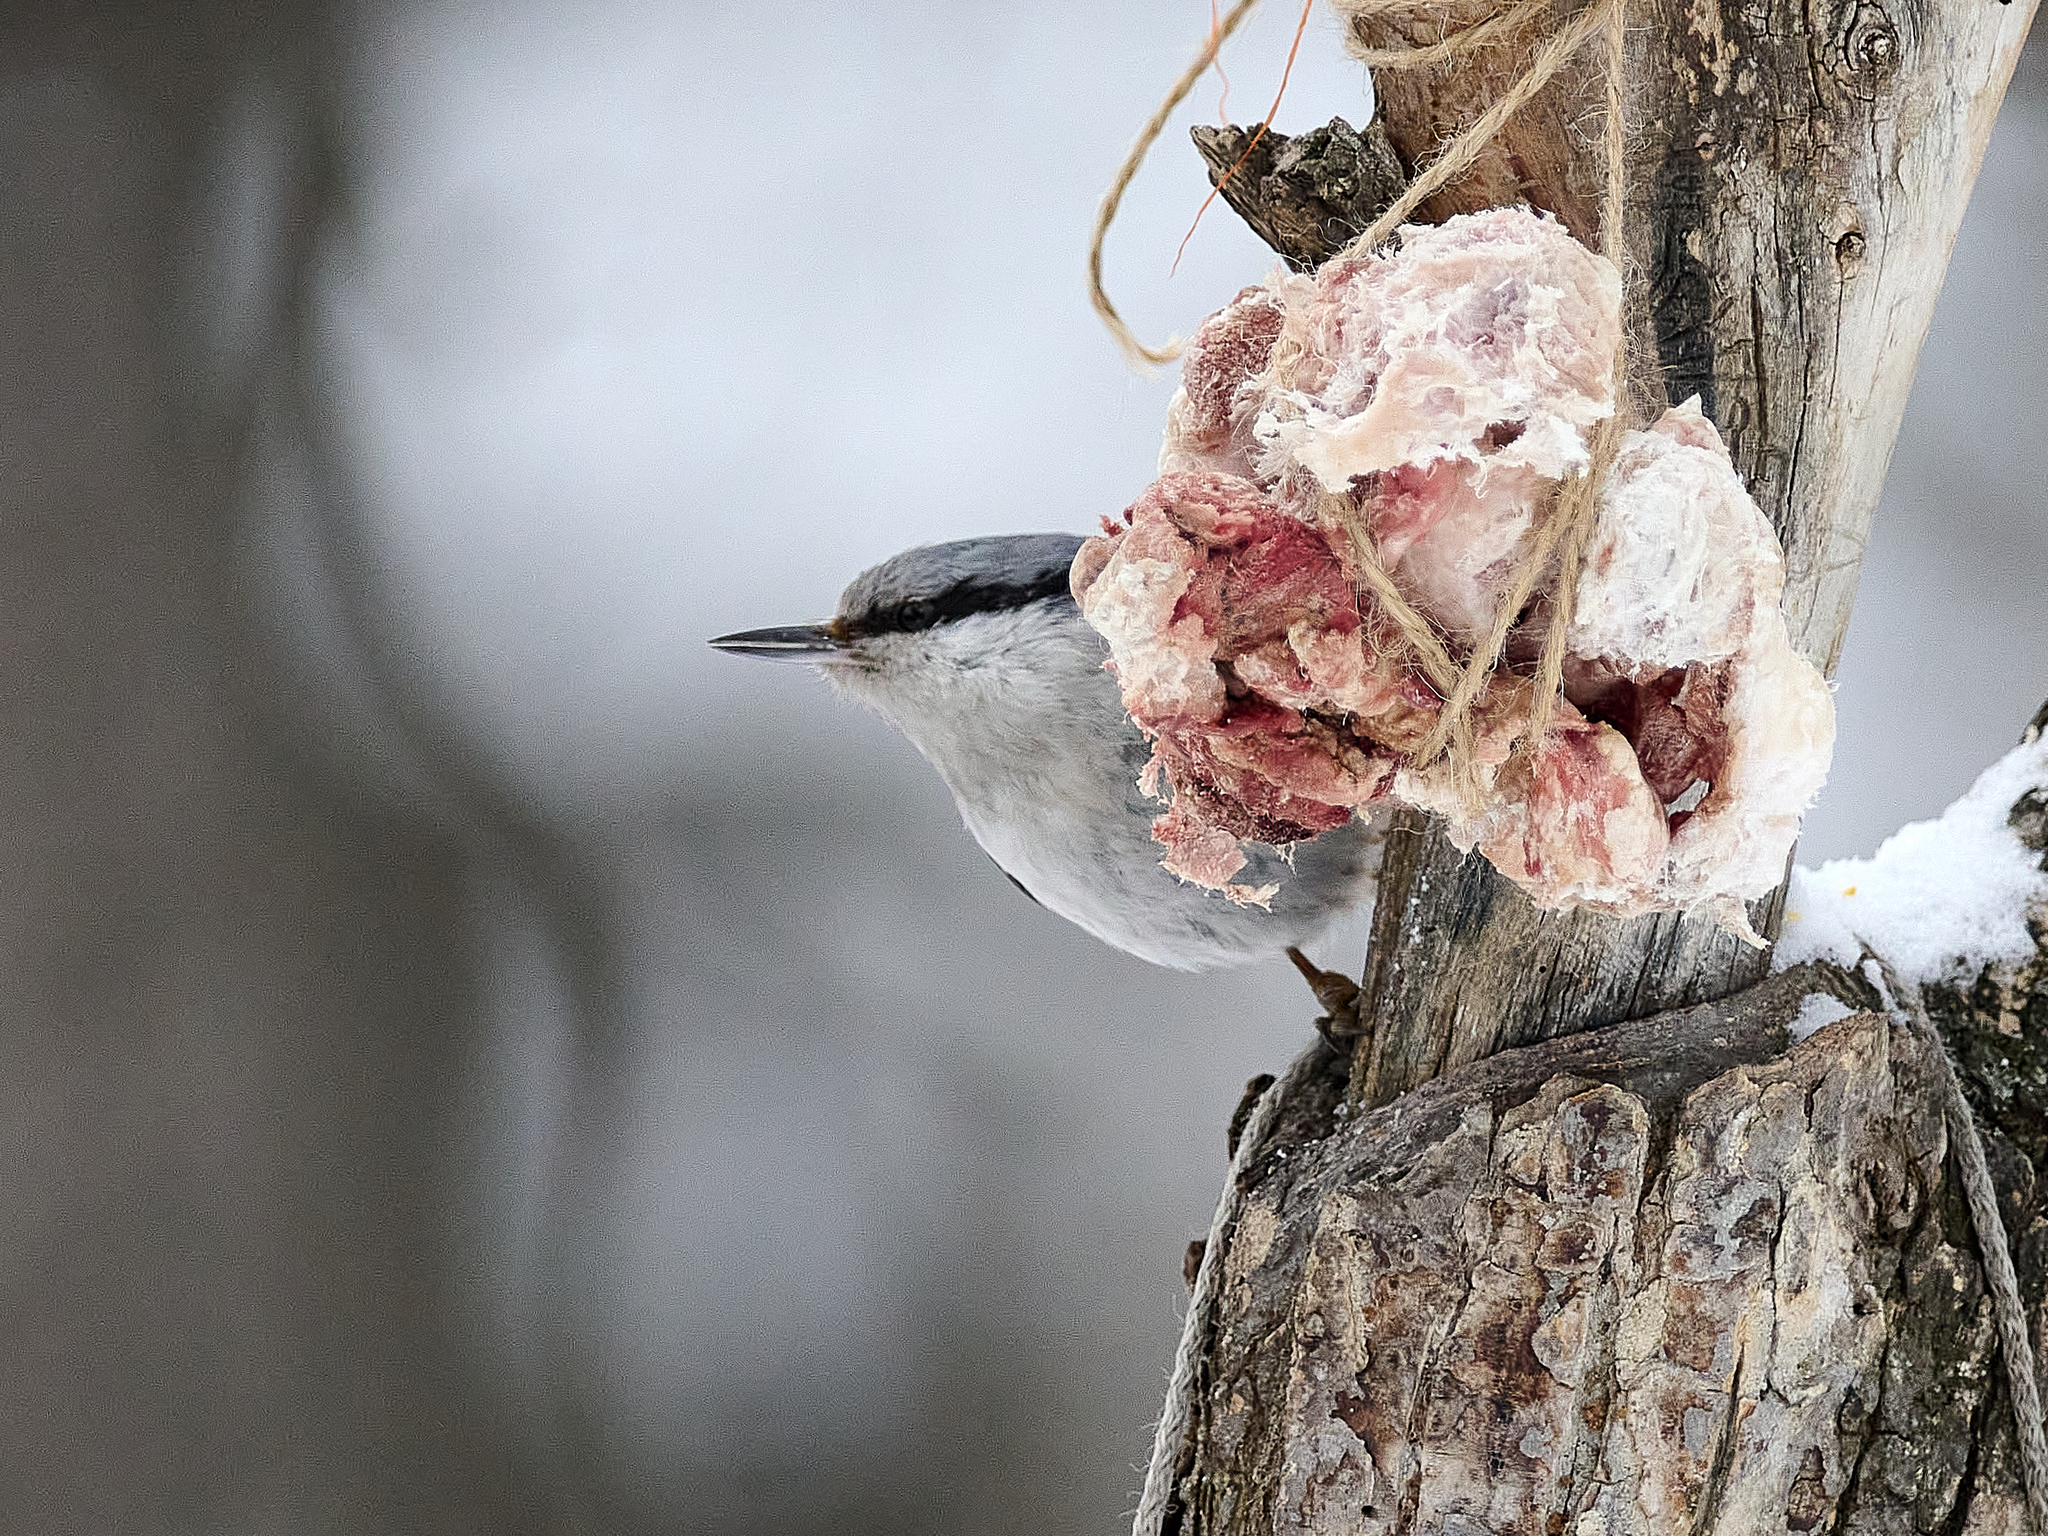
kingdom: Animalia
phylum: Chordata
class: Aves
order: Passeriformes
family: Sittidae
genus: Sitta
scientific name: Sitta europaea
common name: Eurasian nuthatch
